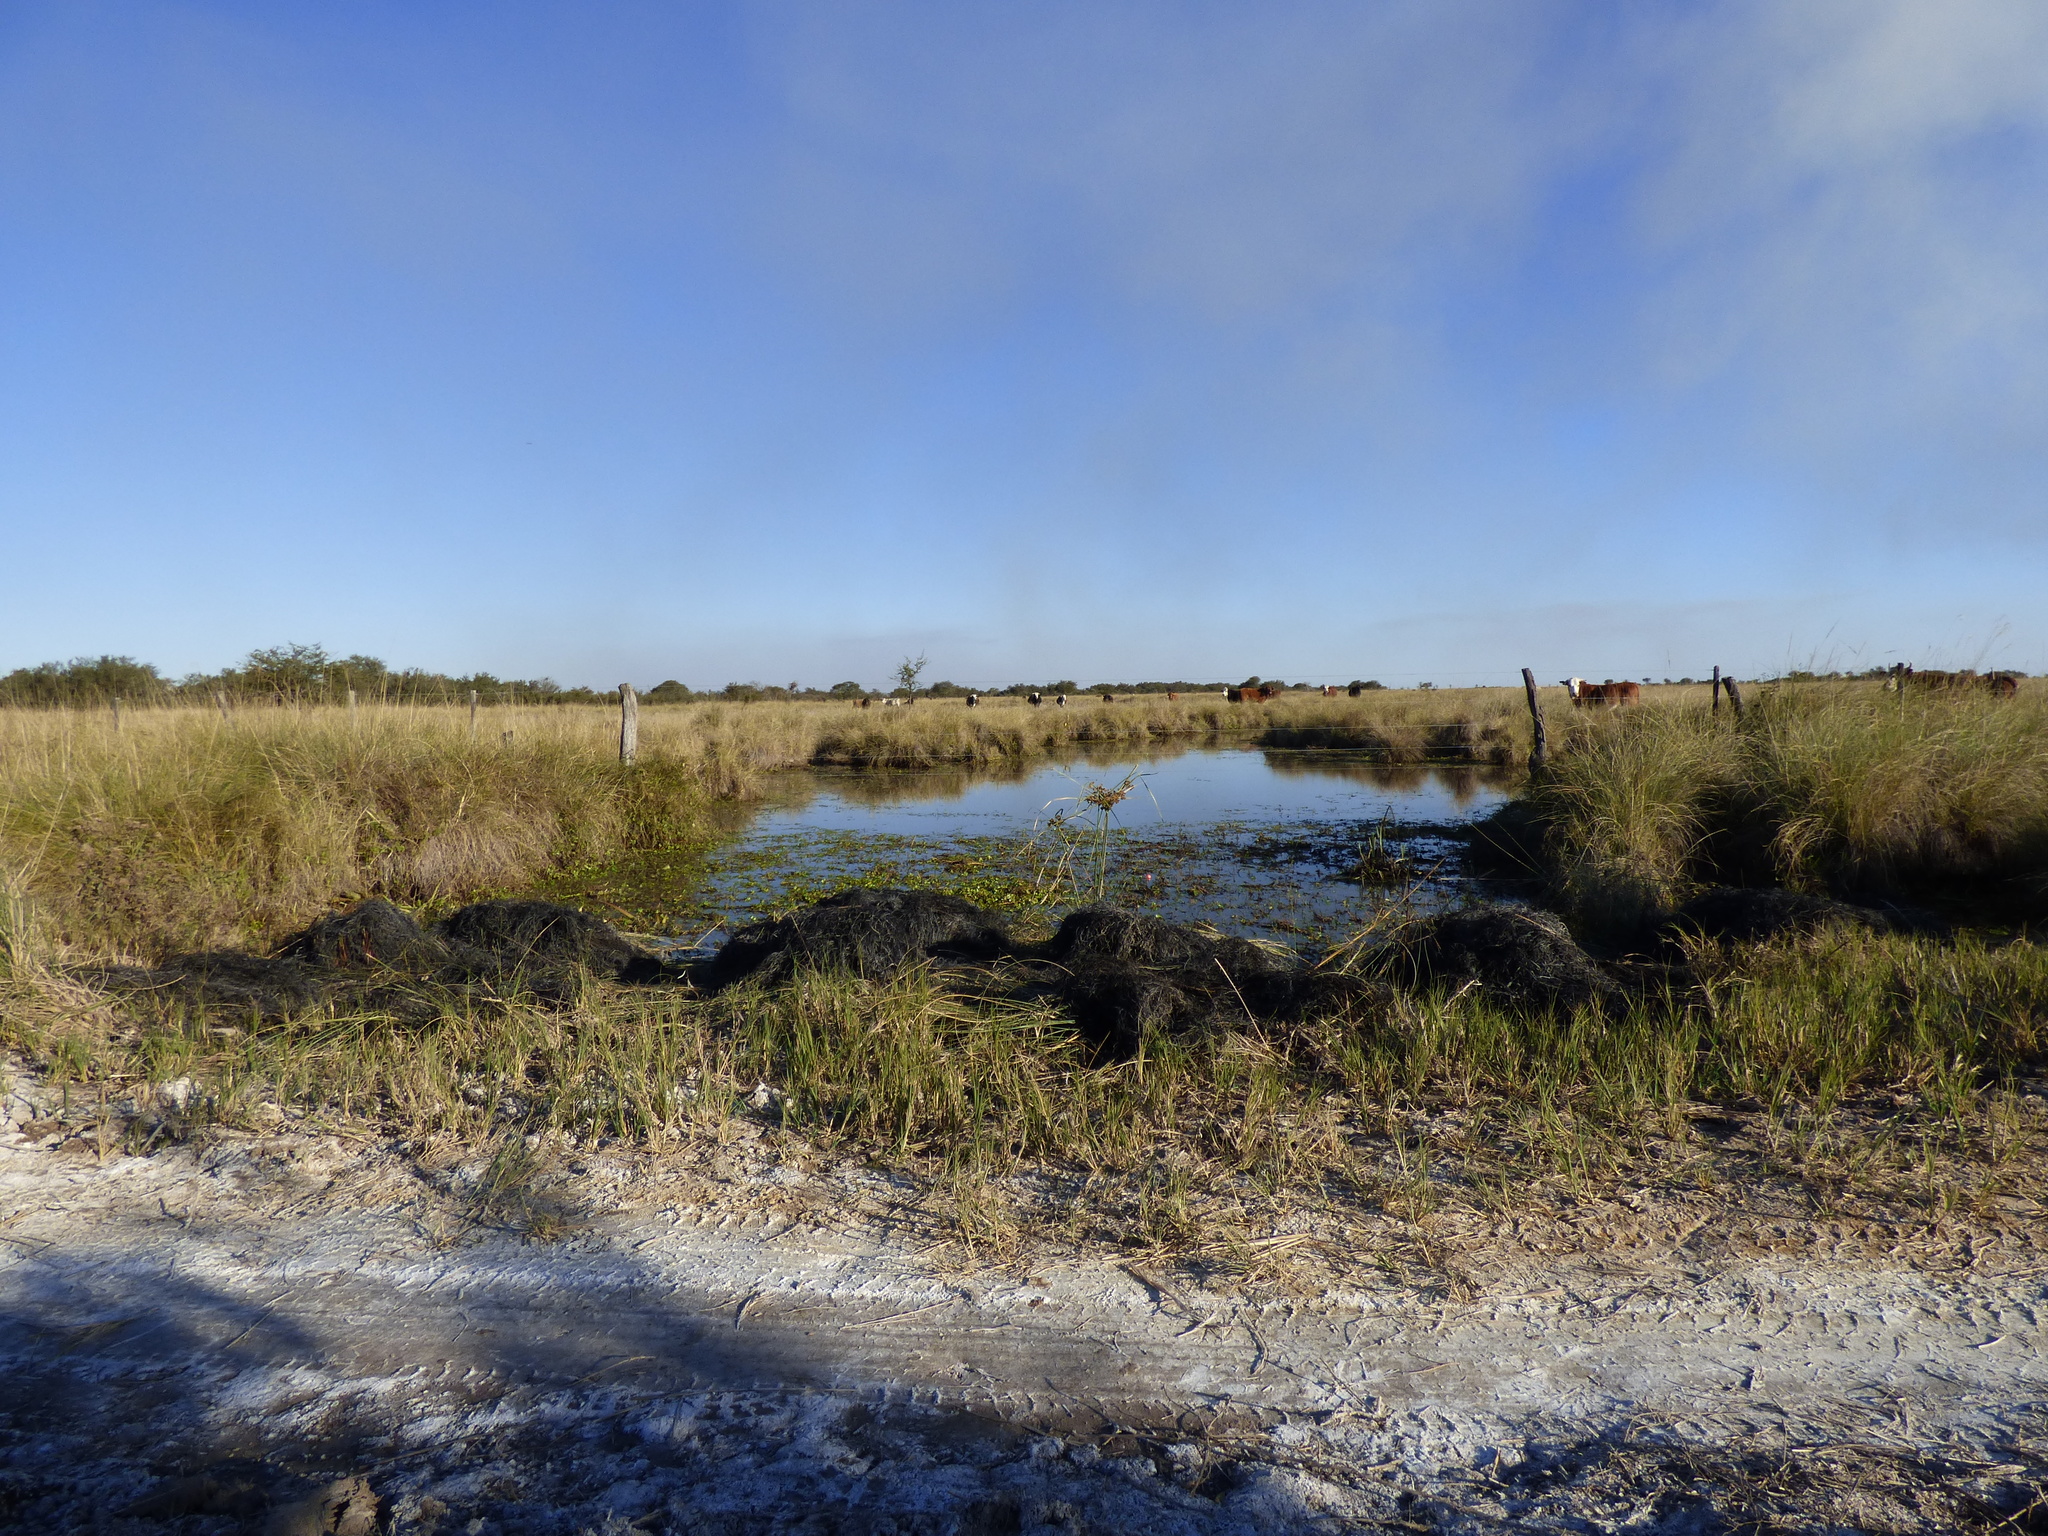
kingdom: Animalia
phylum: Chordata
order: Cyprinodontiformes
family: Rivulidae
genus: Austrolebias
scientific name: Austrolebias bellottii
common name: Argentine pearlfish
